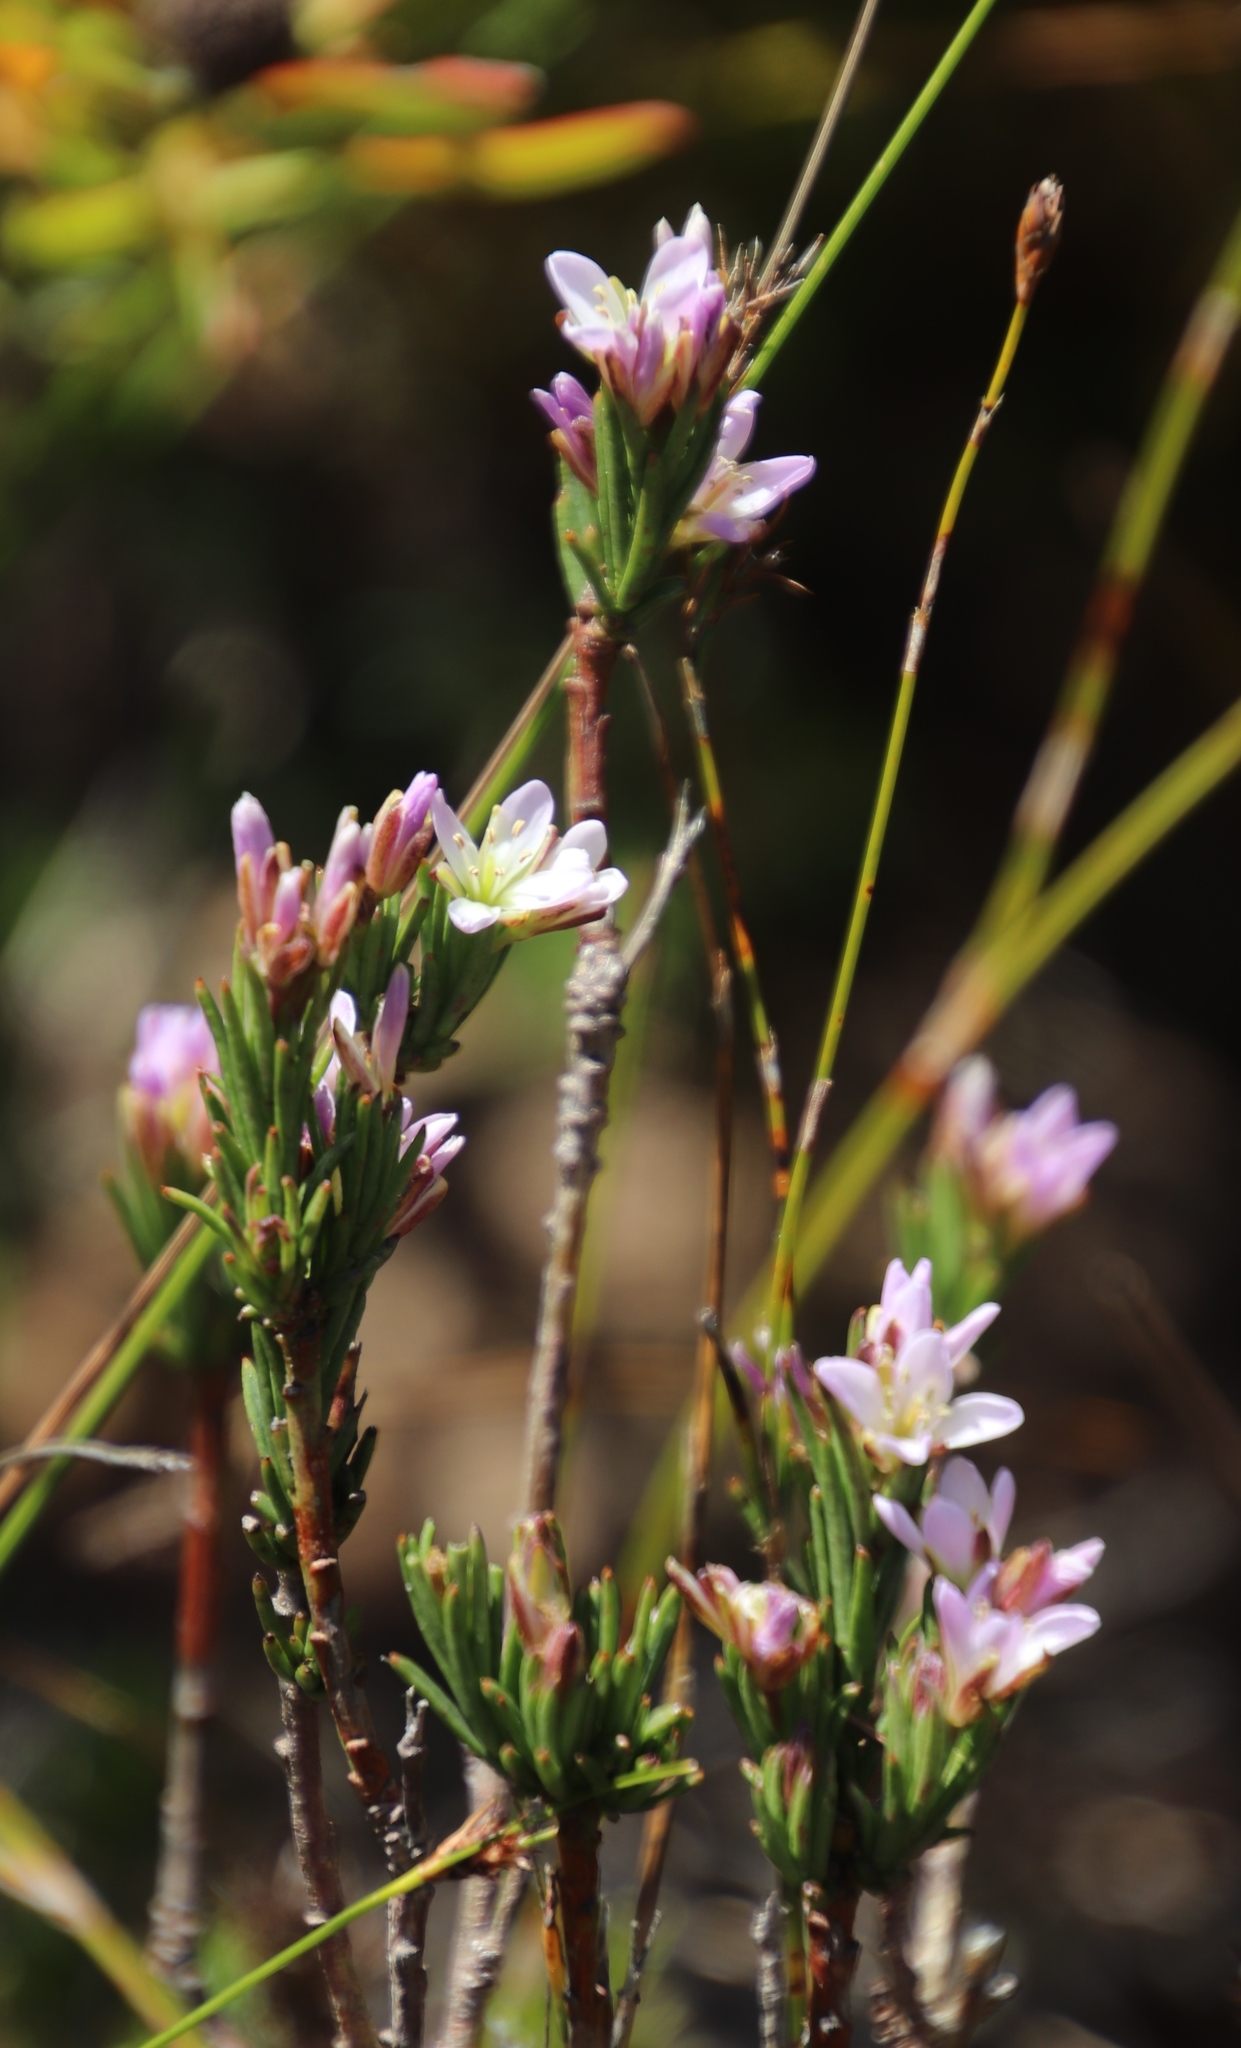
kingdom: Plantae
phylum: Tracheophyta
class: Magnoliopsida
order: Brassicales
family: Brassicaceae
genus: Heliophila
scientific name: Heliophila scoparia
